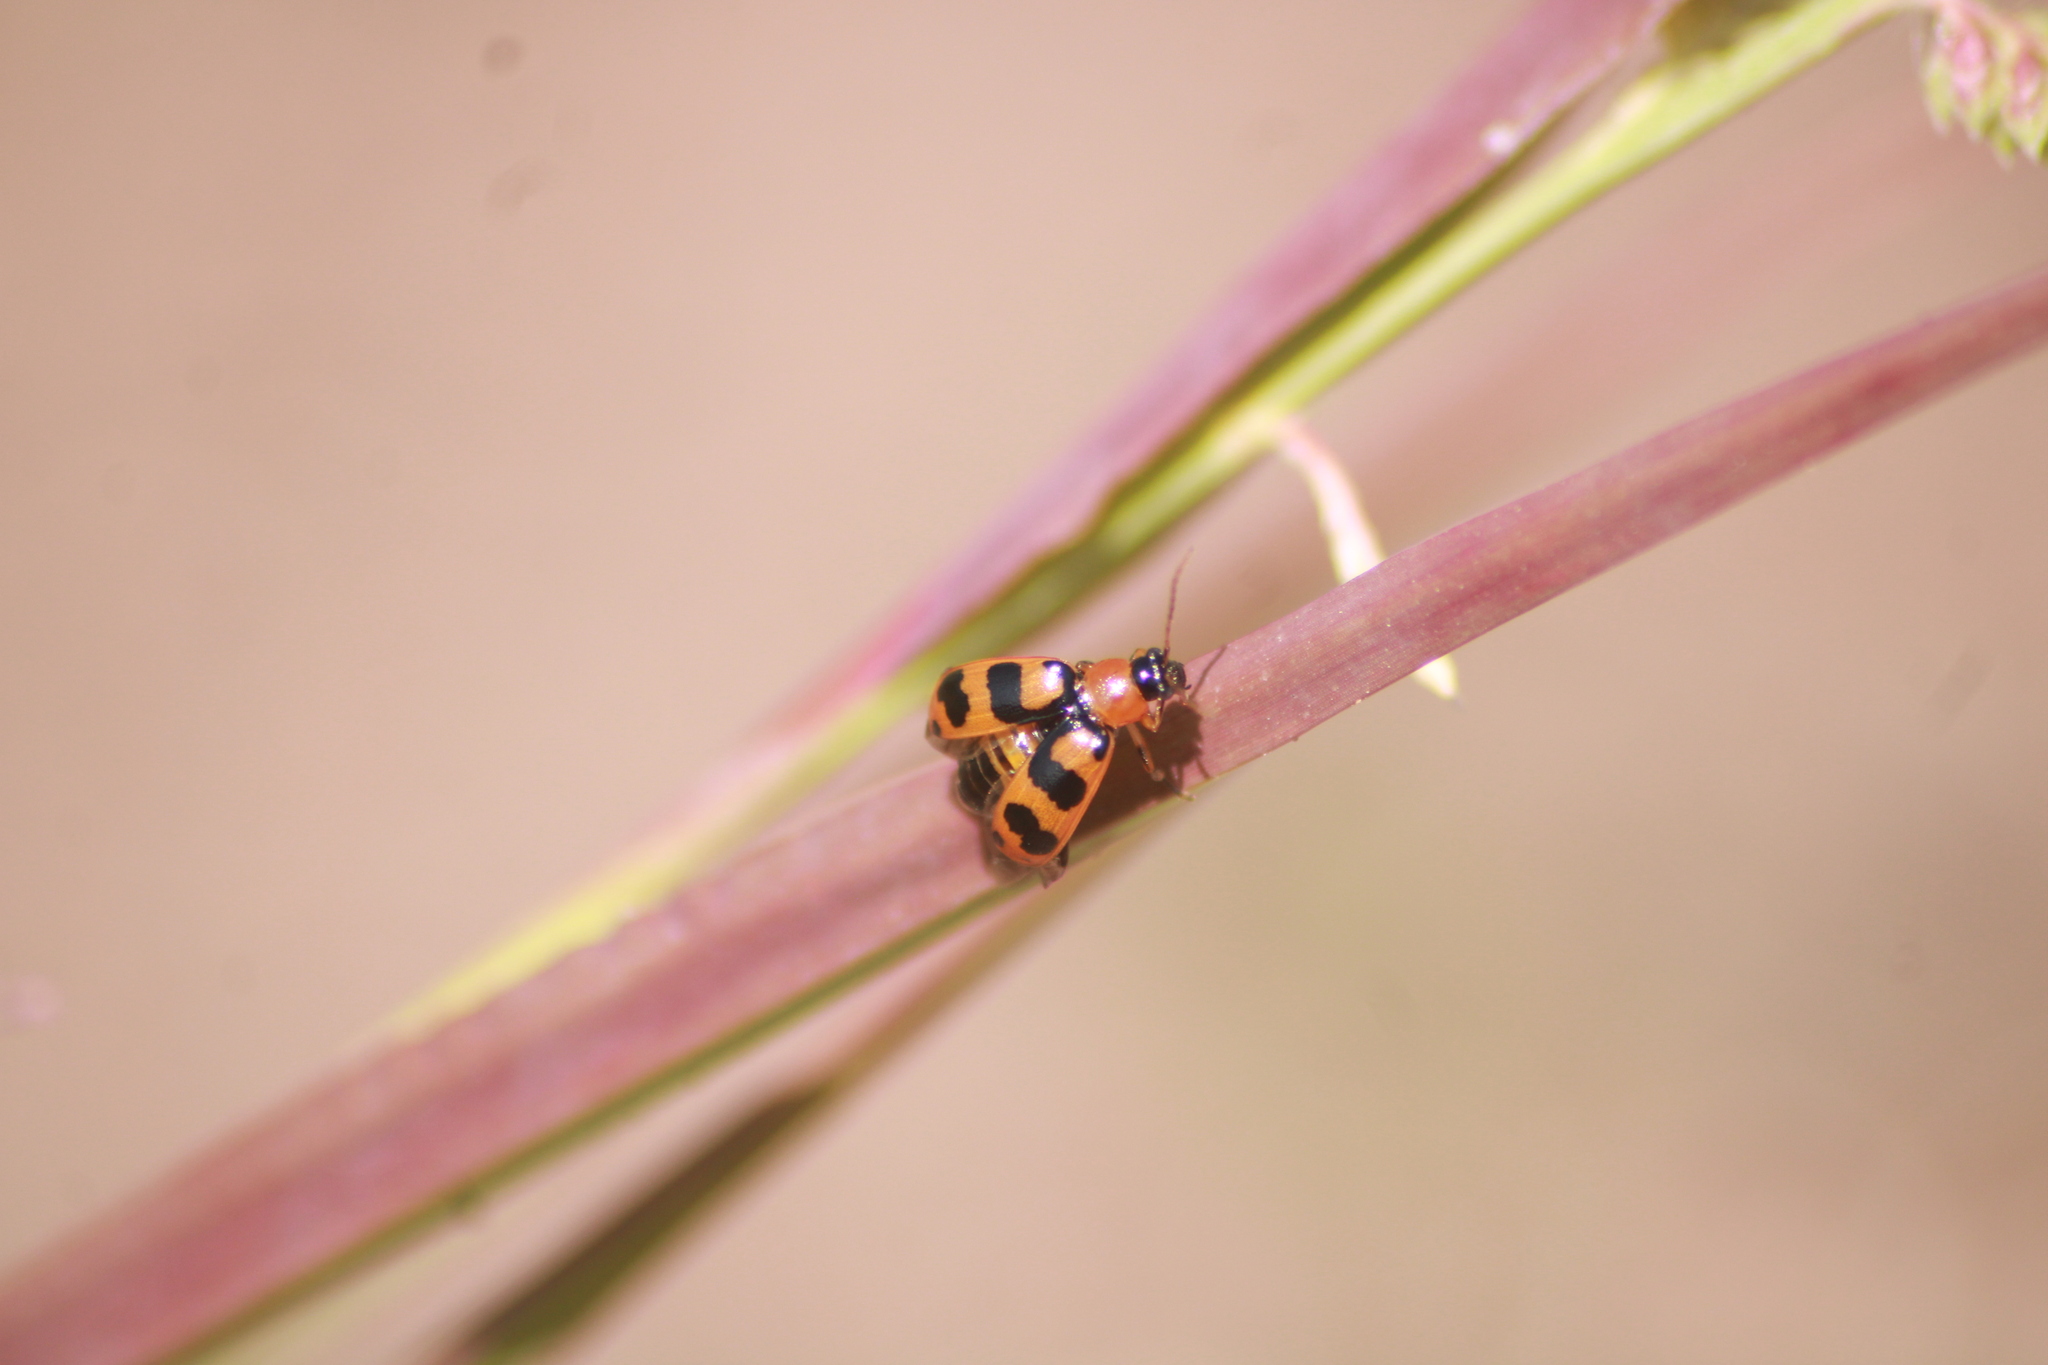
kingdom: Animalia
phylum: Arthropoda
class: Insecta
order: Coleoptera
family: Chrysomelidae
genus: Cerotoma
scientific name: Cerotoma atrofasciata
